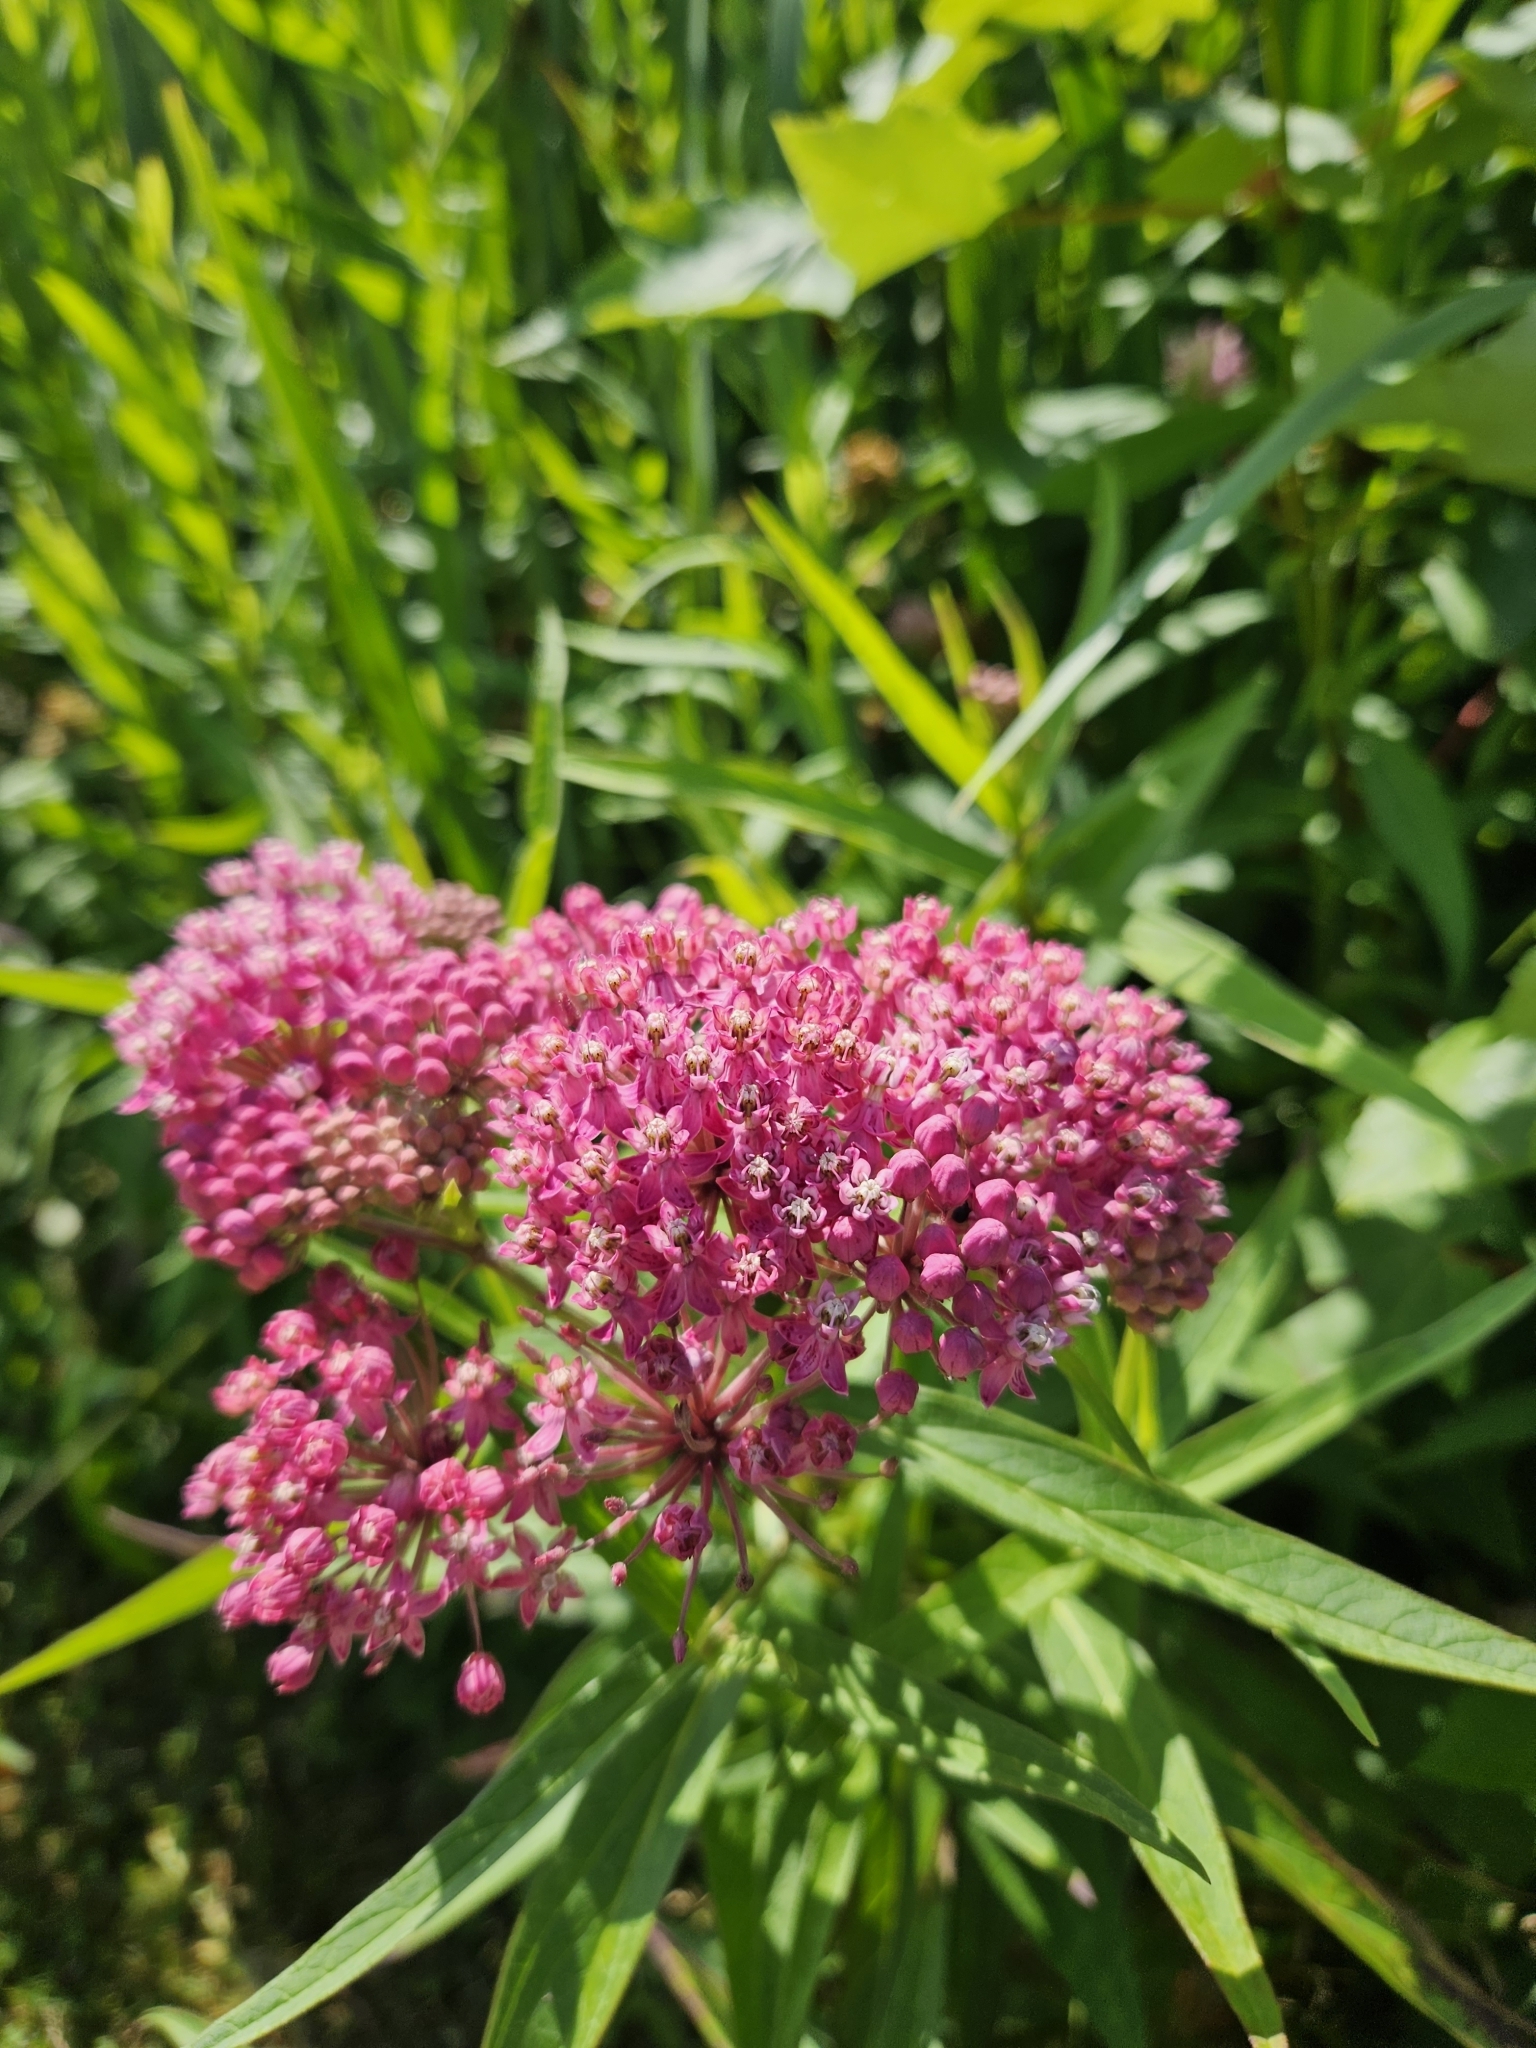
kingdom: Plantae
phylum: Tracheophyta
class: Magnoliopsida
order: Gentianales
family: Apocynaceae
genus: Asclepias
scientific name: Asclepias incarnata
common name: Swamp milkweed
